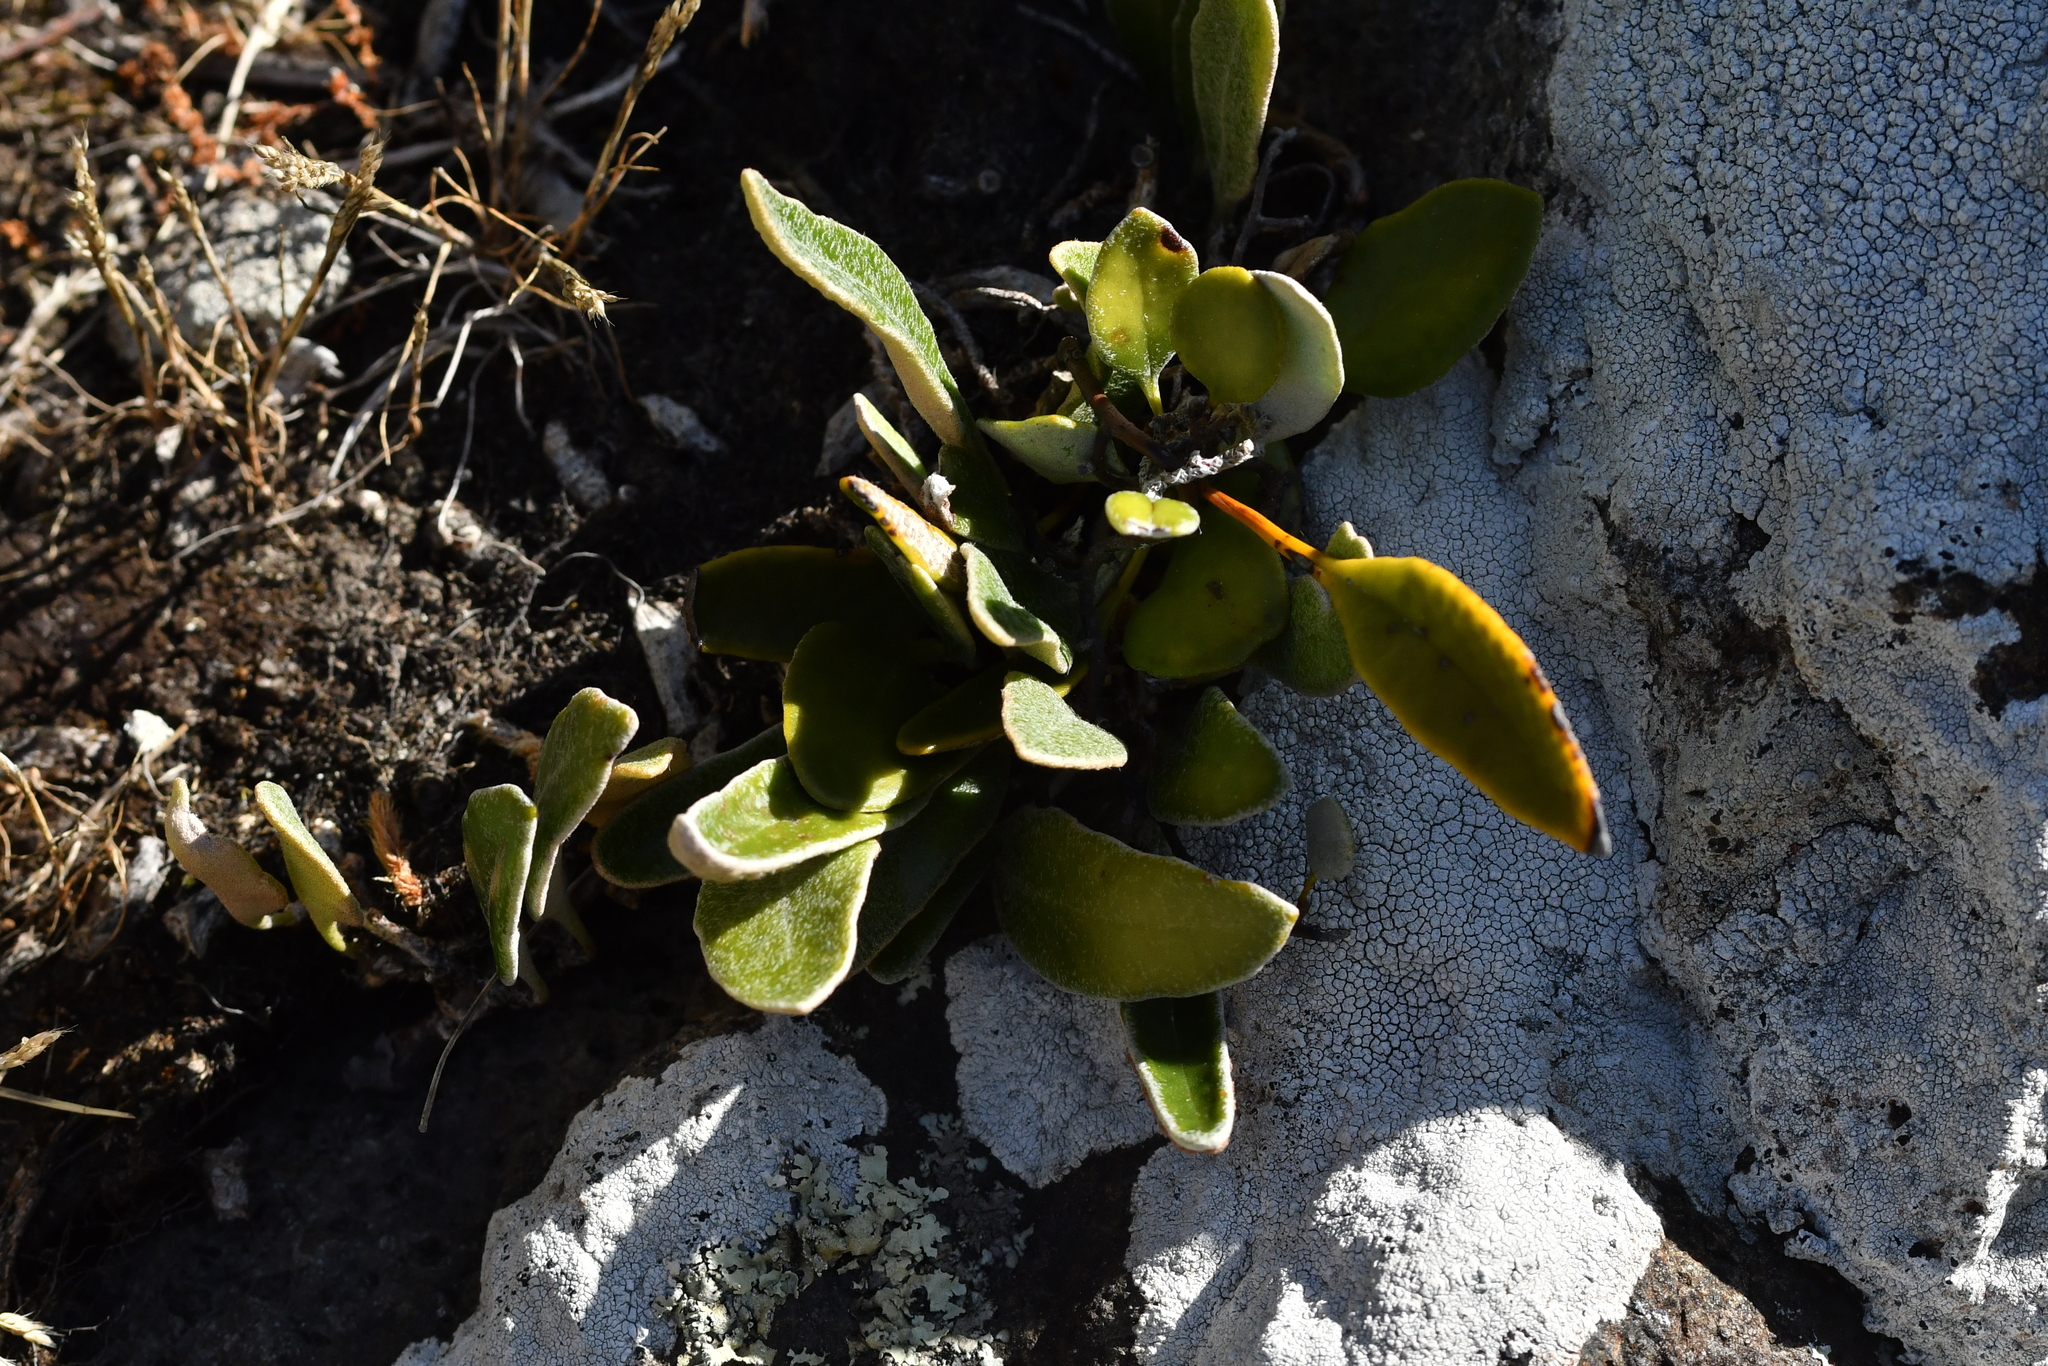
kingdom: Plantae
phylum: Tracheophyta
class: Polypodiopsida
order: Polypodiales
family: Polypodiaceae
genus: Pyrrosia
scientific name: Pyrrosia eleagnifolia
